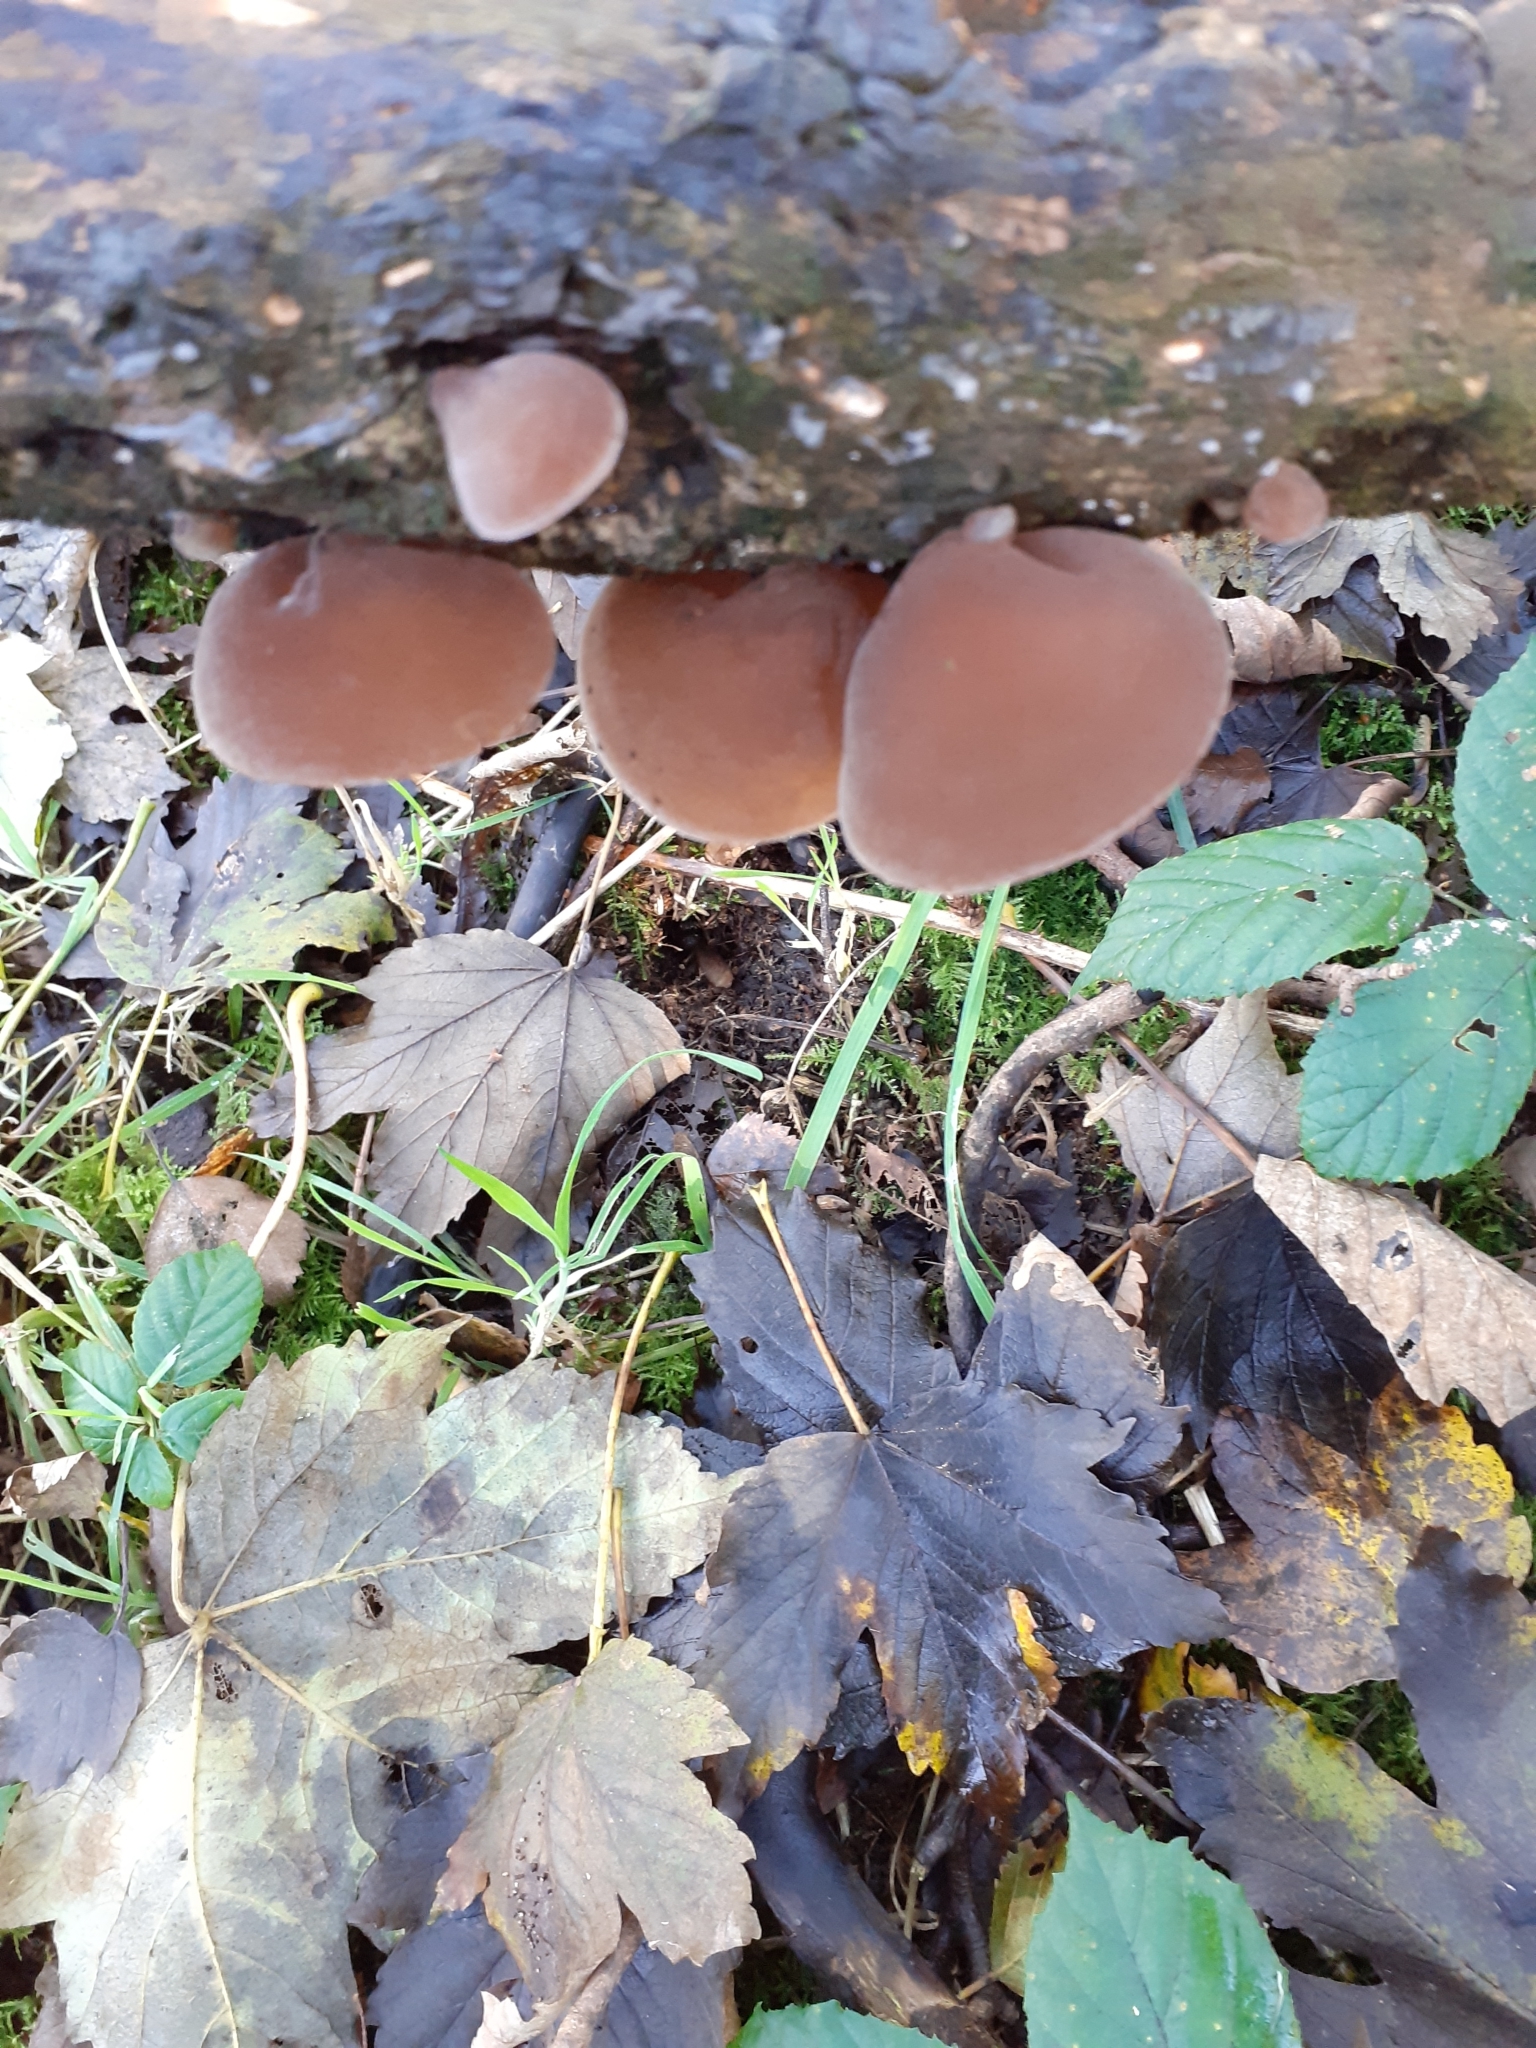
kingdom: Fungi
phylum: Basidiomycota
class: Agaricomycetes
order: Auriculariales
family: Auriculariaceae
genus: Auricularia
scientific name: Auricularia auricula-judae
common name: Jelly ear
